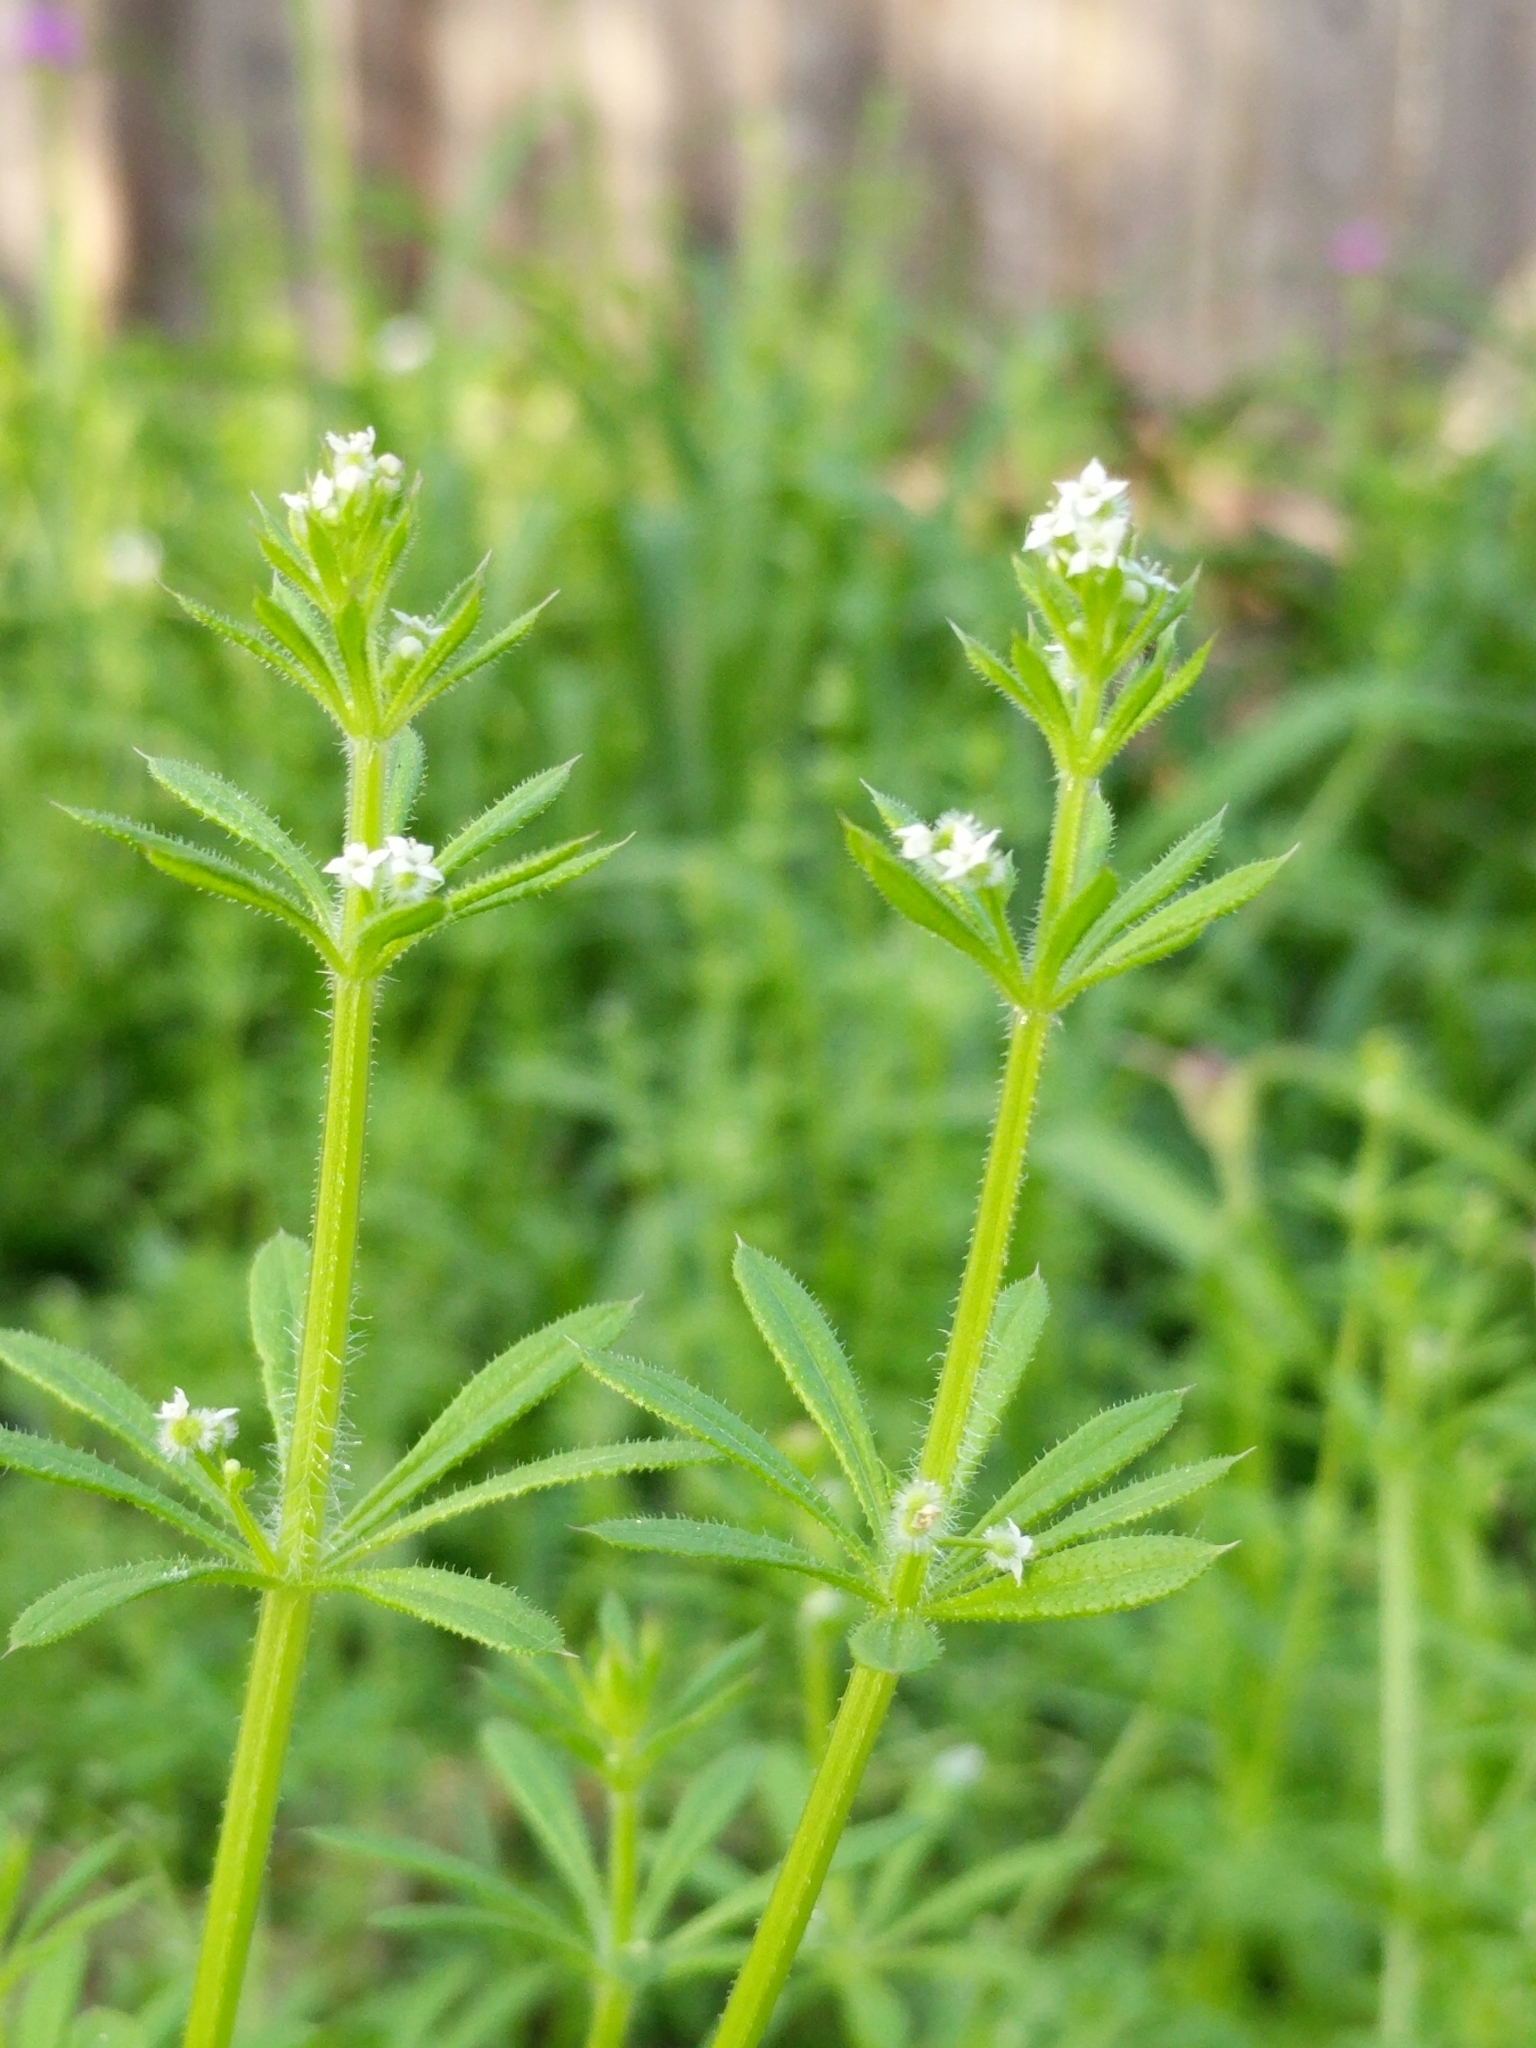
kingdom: Plantae
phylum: Tracheophyta
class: Magnoliopsida
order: Gentianales
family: Rubiaceae
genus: Galium
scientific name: Galium aparine
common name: Cleavers
